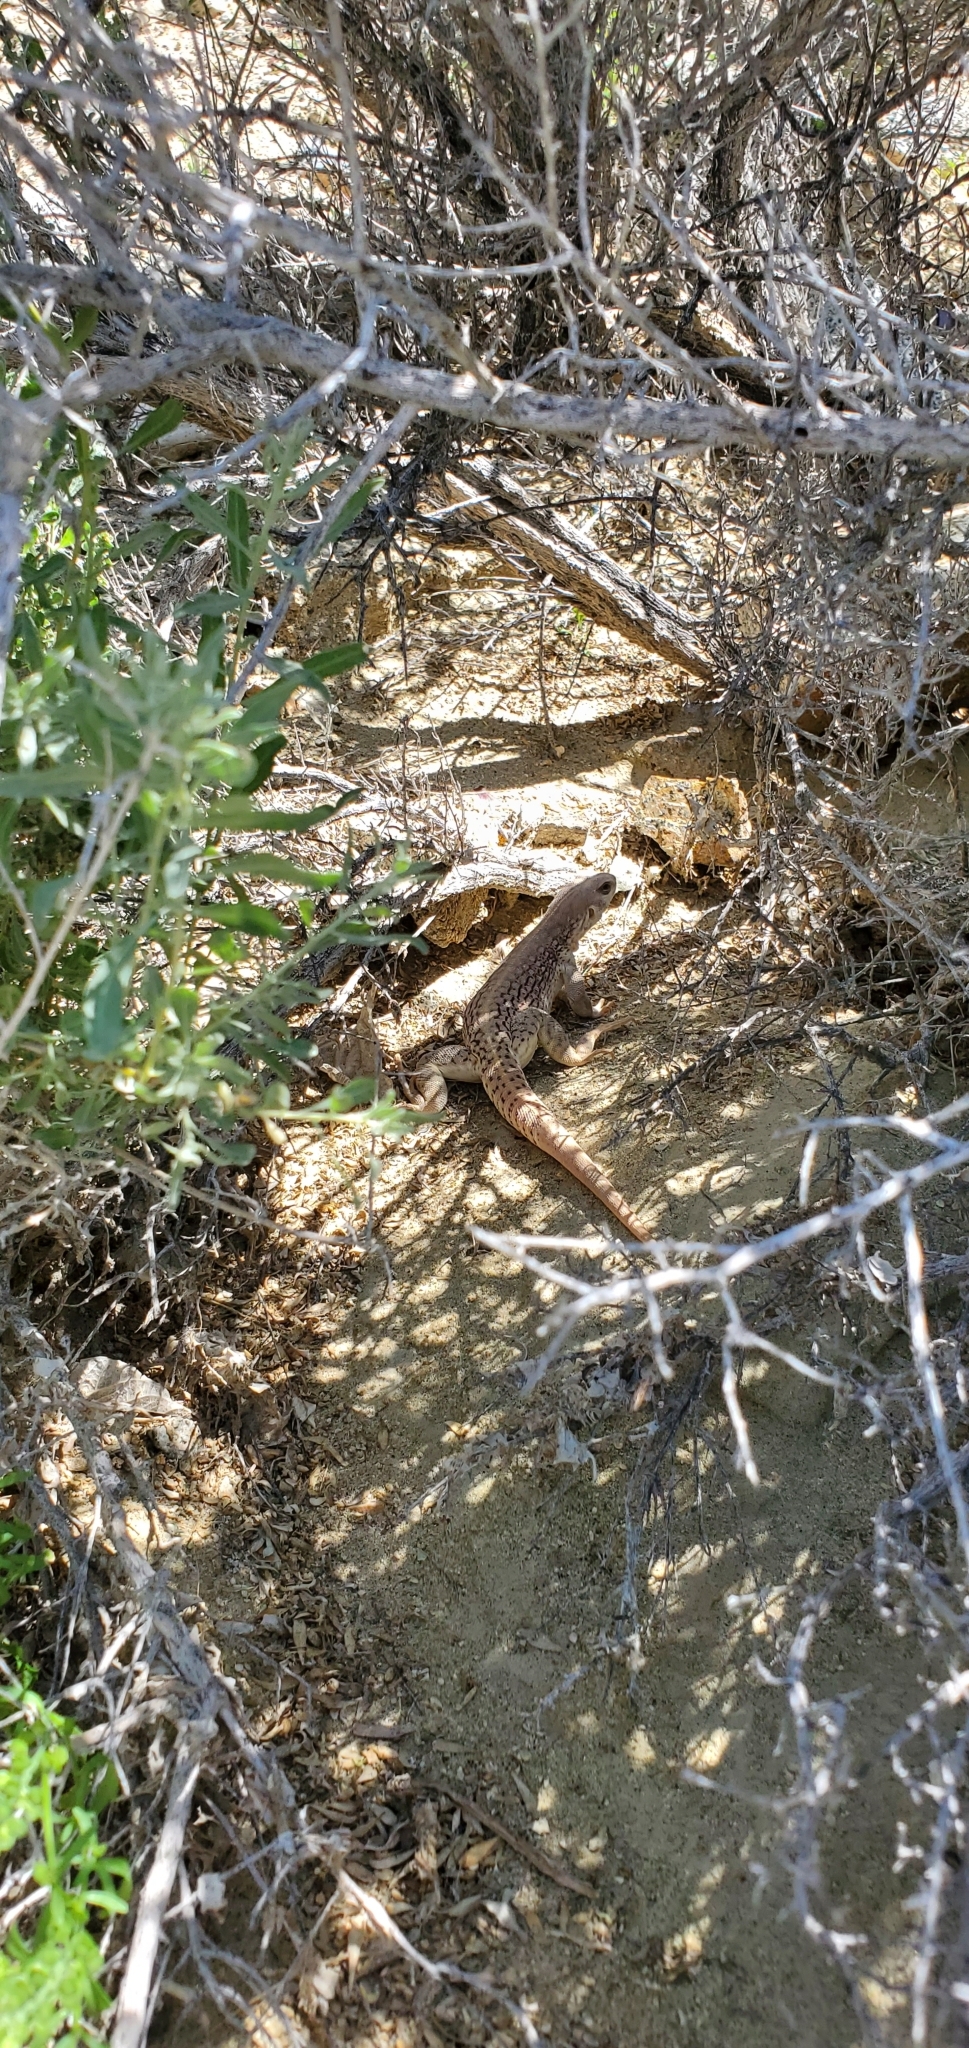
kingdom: Animalia
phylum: Chordata
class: Squamata
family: Iguanidae
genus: Dipsosaurus
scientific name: Dipsosaurus dorsalis
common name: Desert iguana
